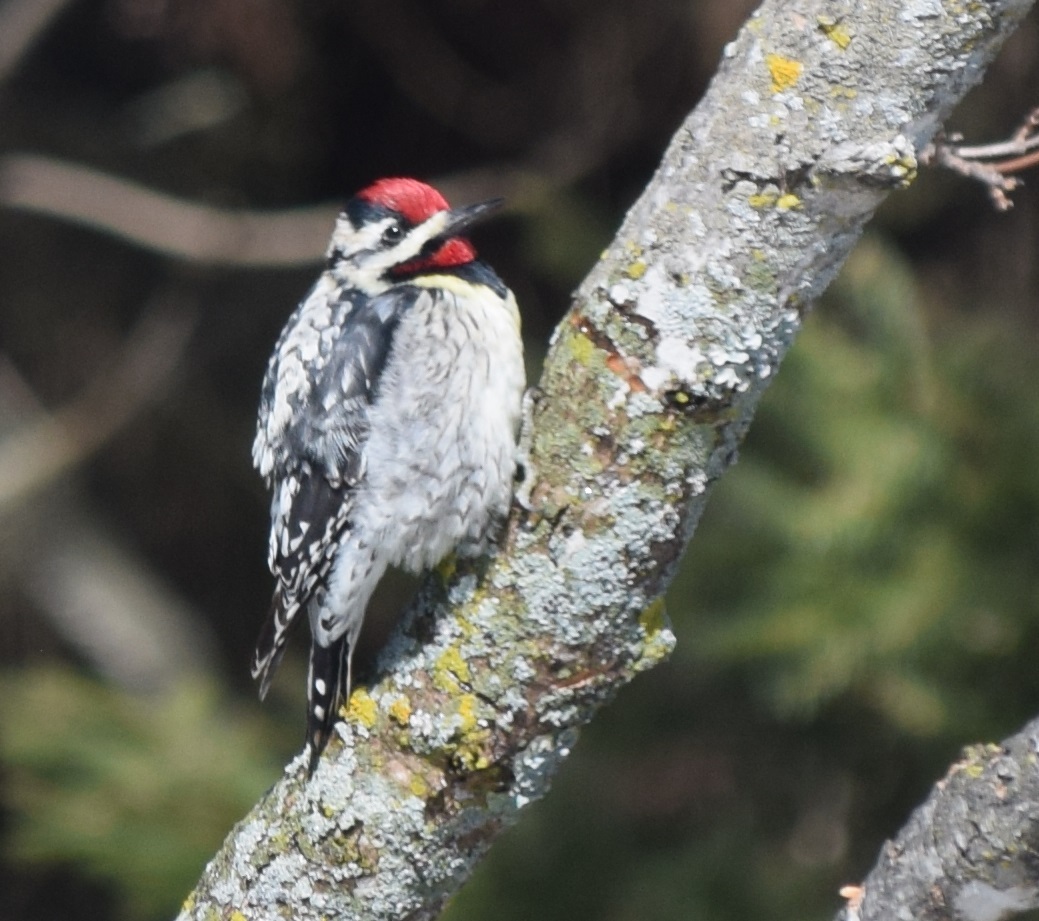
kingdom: Animalia
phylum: Chordata
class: Aves
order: Piciformes
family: Picidae
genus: Sphyrapicus
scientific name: Sphyrapicus varius
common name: Yellow-bellied sapsucker
